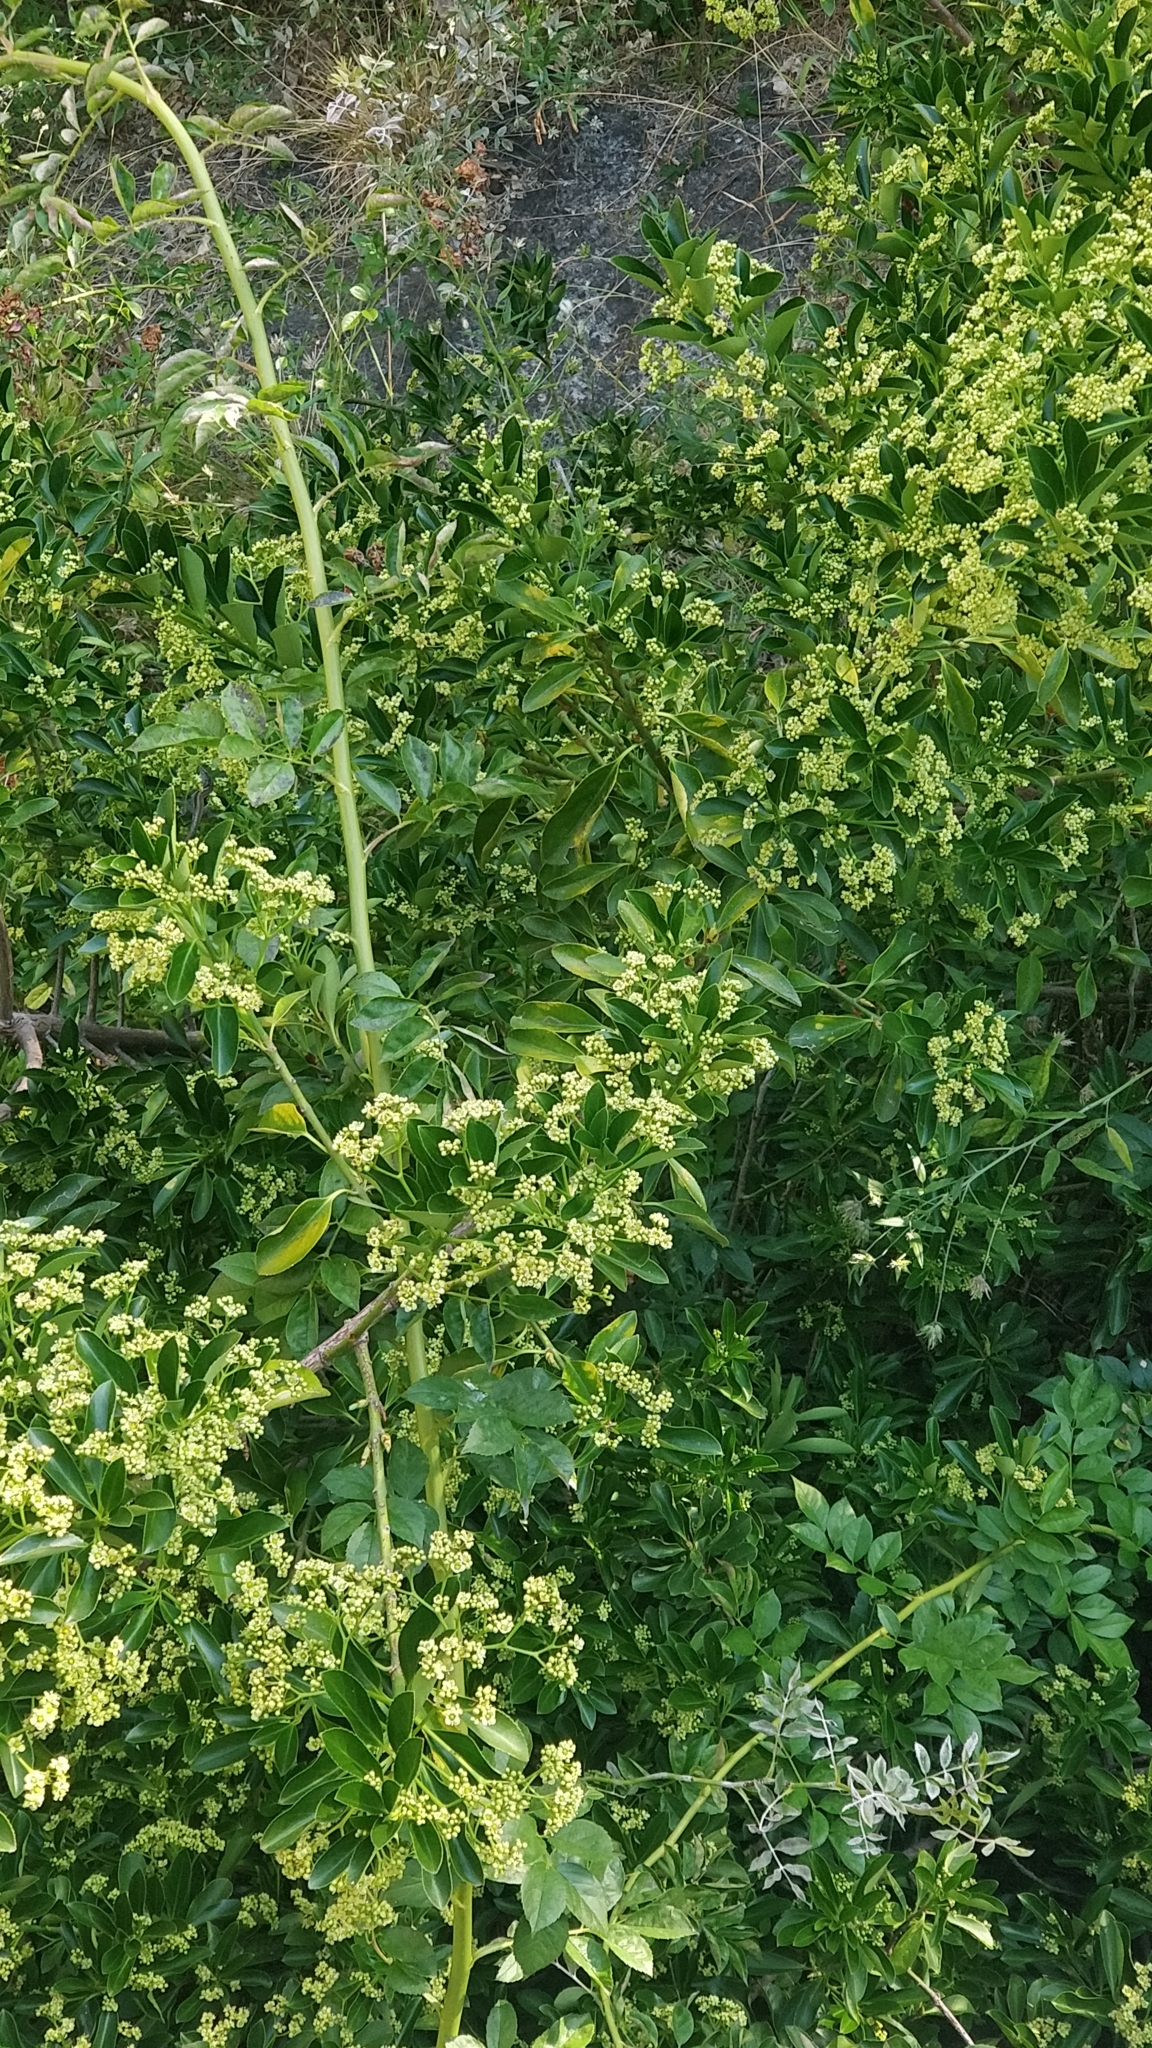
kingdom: Plantae
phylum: Tracheophyta
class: Magnoliopsida
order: Celastrales
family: Celastraceae
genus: Euonymus
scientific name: Euonymus japonicus
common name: Japanese spindletree
